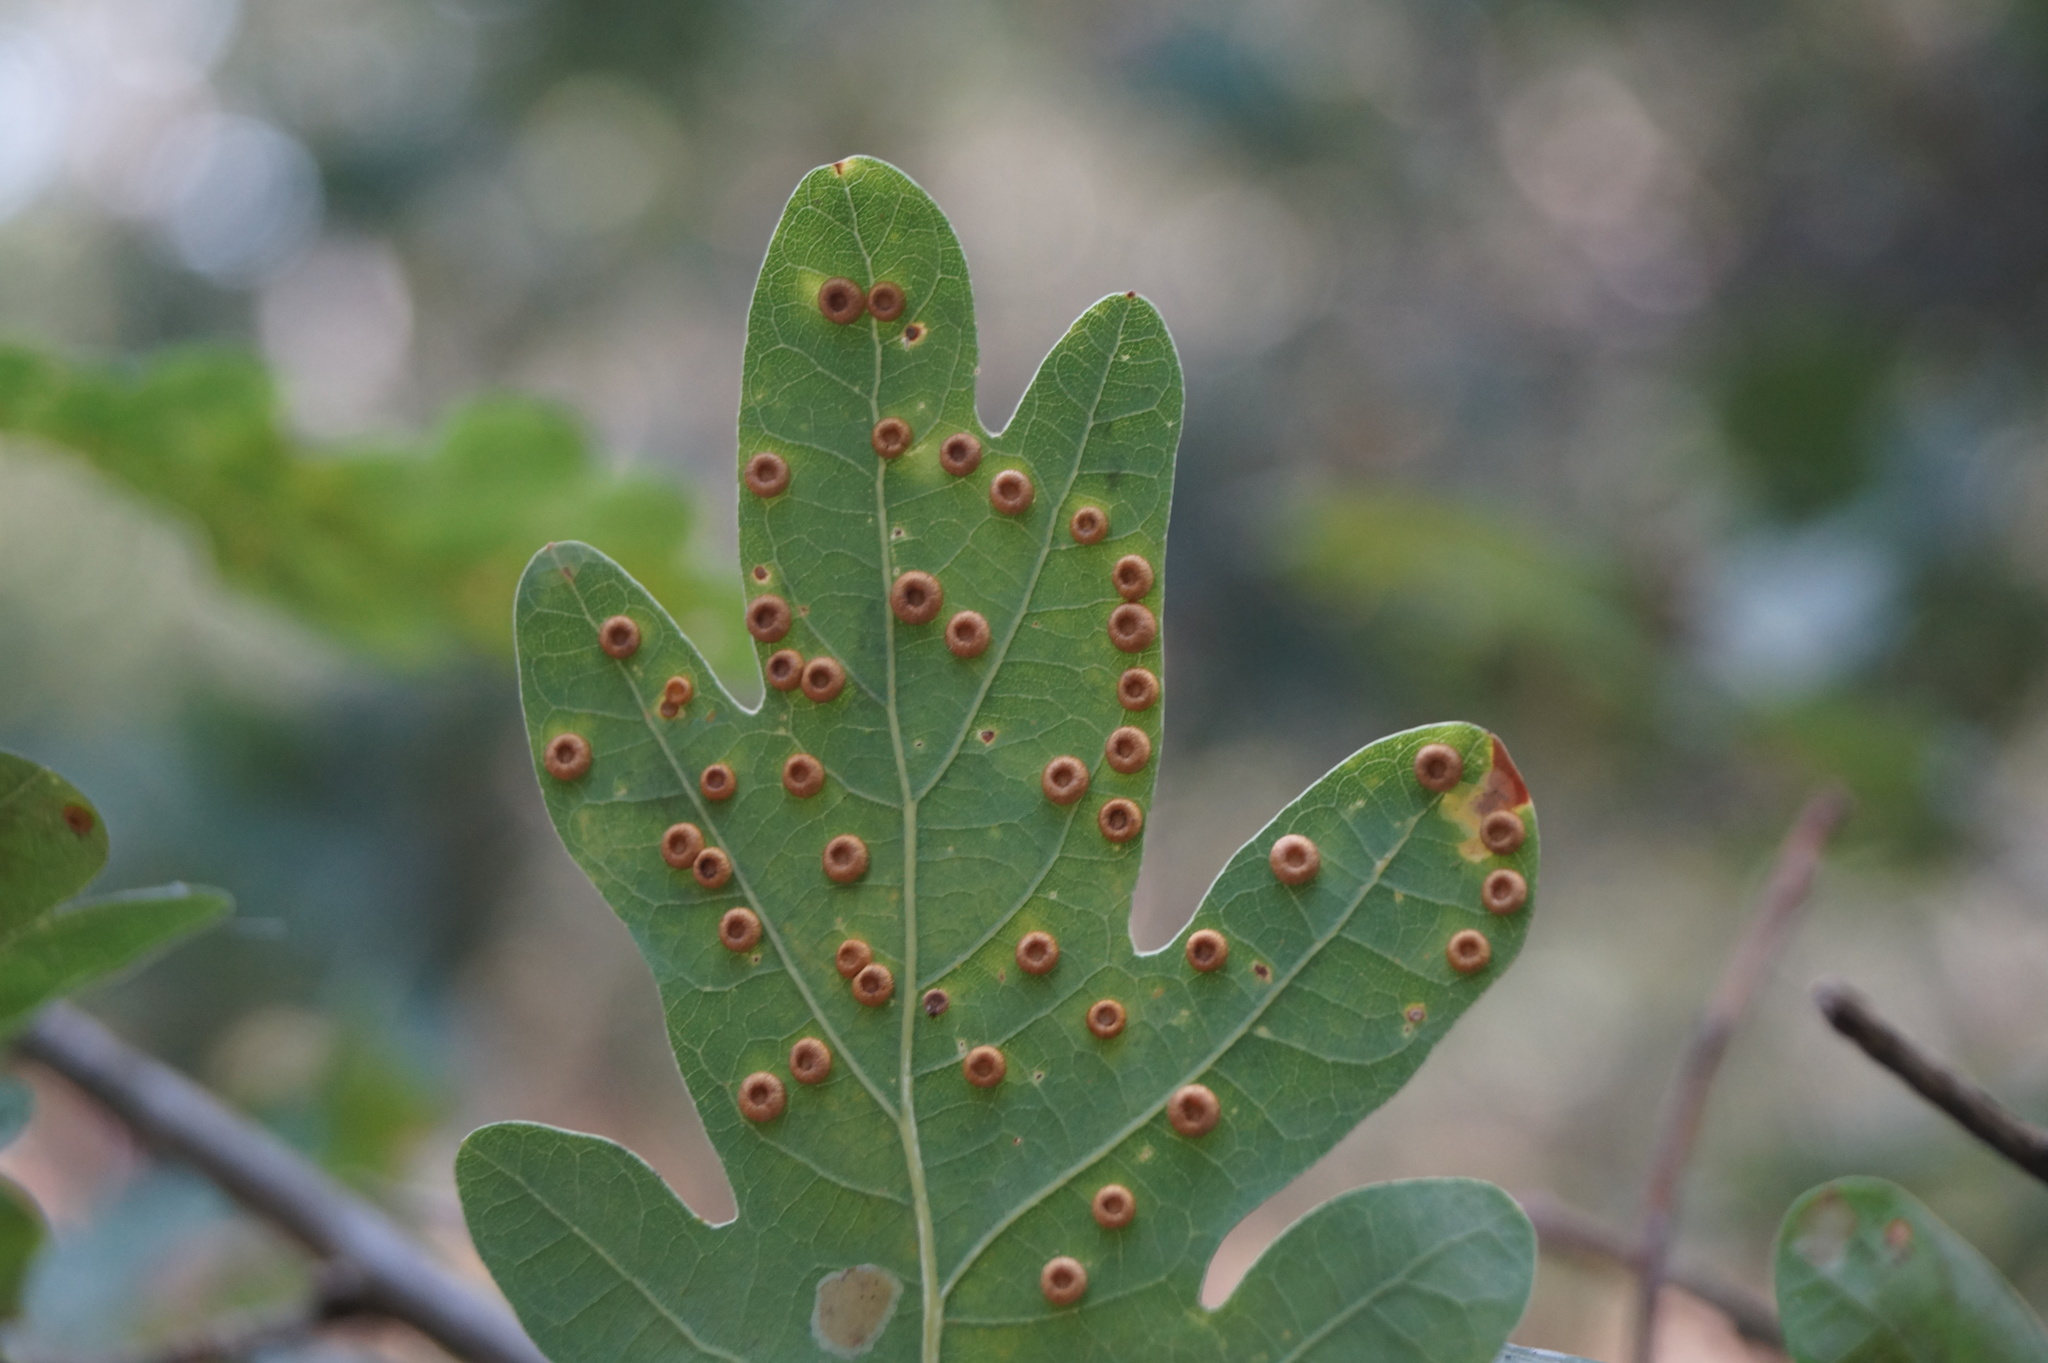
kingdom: Animalia
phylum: Arthropoda
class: Insecta
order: Hymenoptera
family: Cynipidae
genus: Neuroterus
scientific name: Neuroterus numismalis
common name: Silk-button spangle gall
